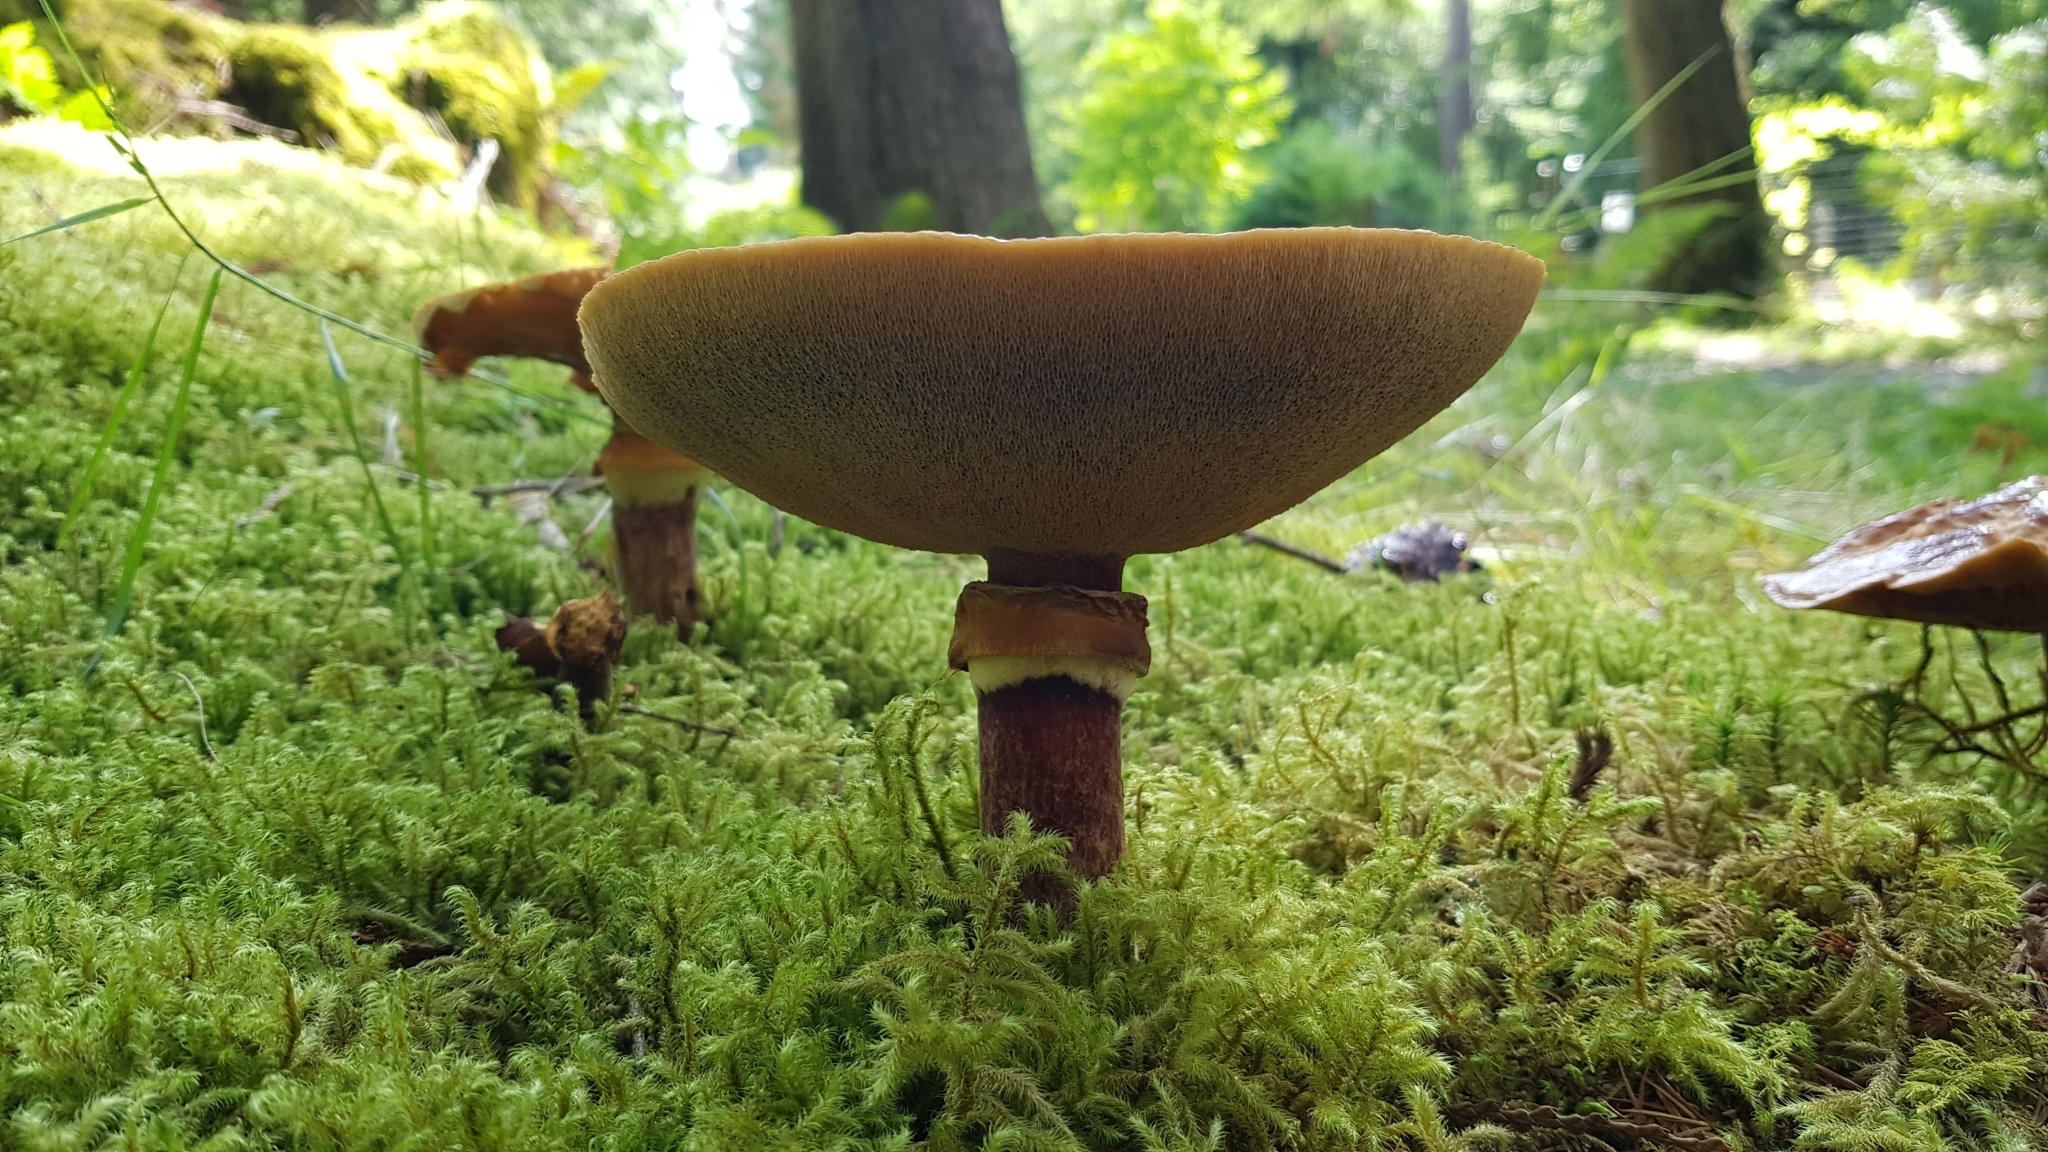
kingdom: Fungi
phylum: Basidiomycota
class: Agaricomycetes
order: Boletales
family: Suillaceae
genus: Suillus
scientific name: Suillus grevillei
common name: Larch bolete
